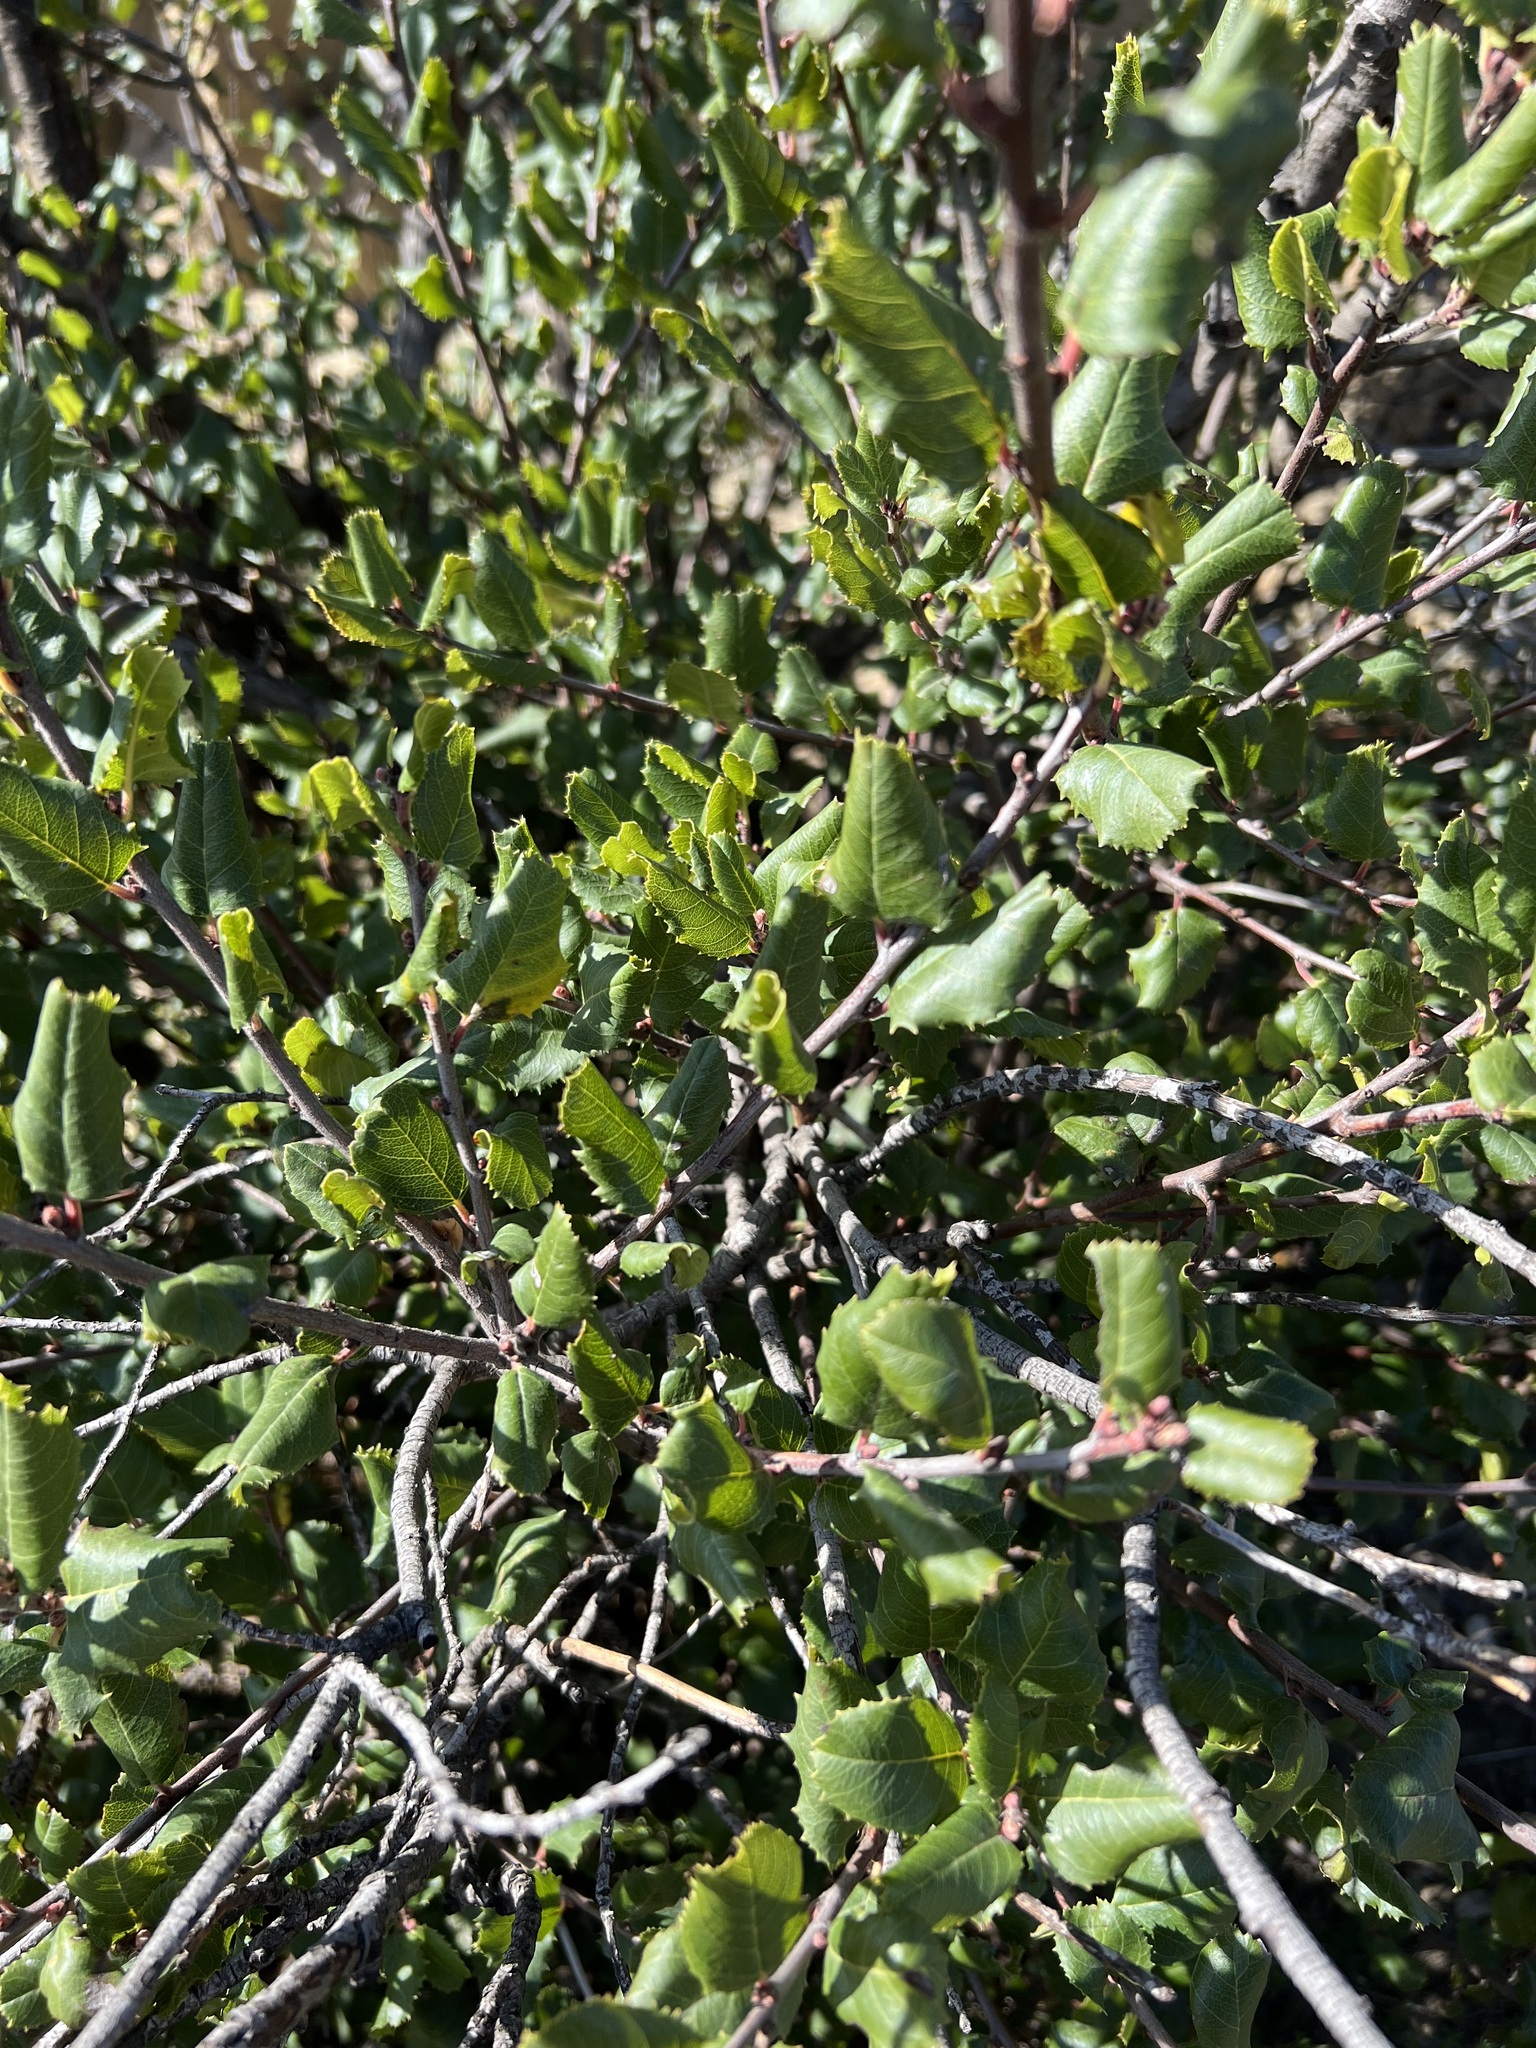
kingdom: Plantae
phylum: Tracheophyta
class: Magnoliopsida
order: Rosales
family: Rhamnaceae
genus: Endotropis
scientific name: Endotropis crocea
